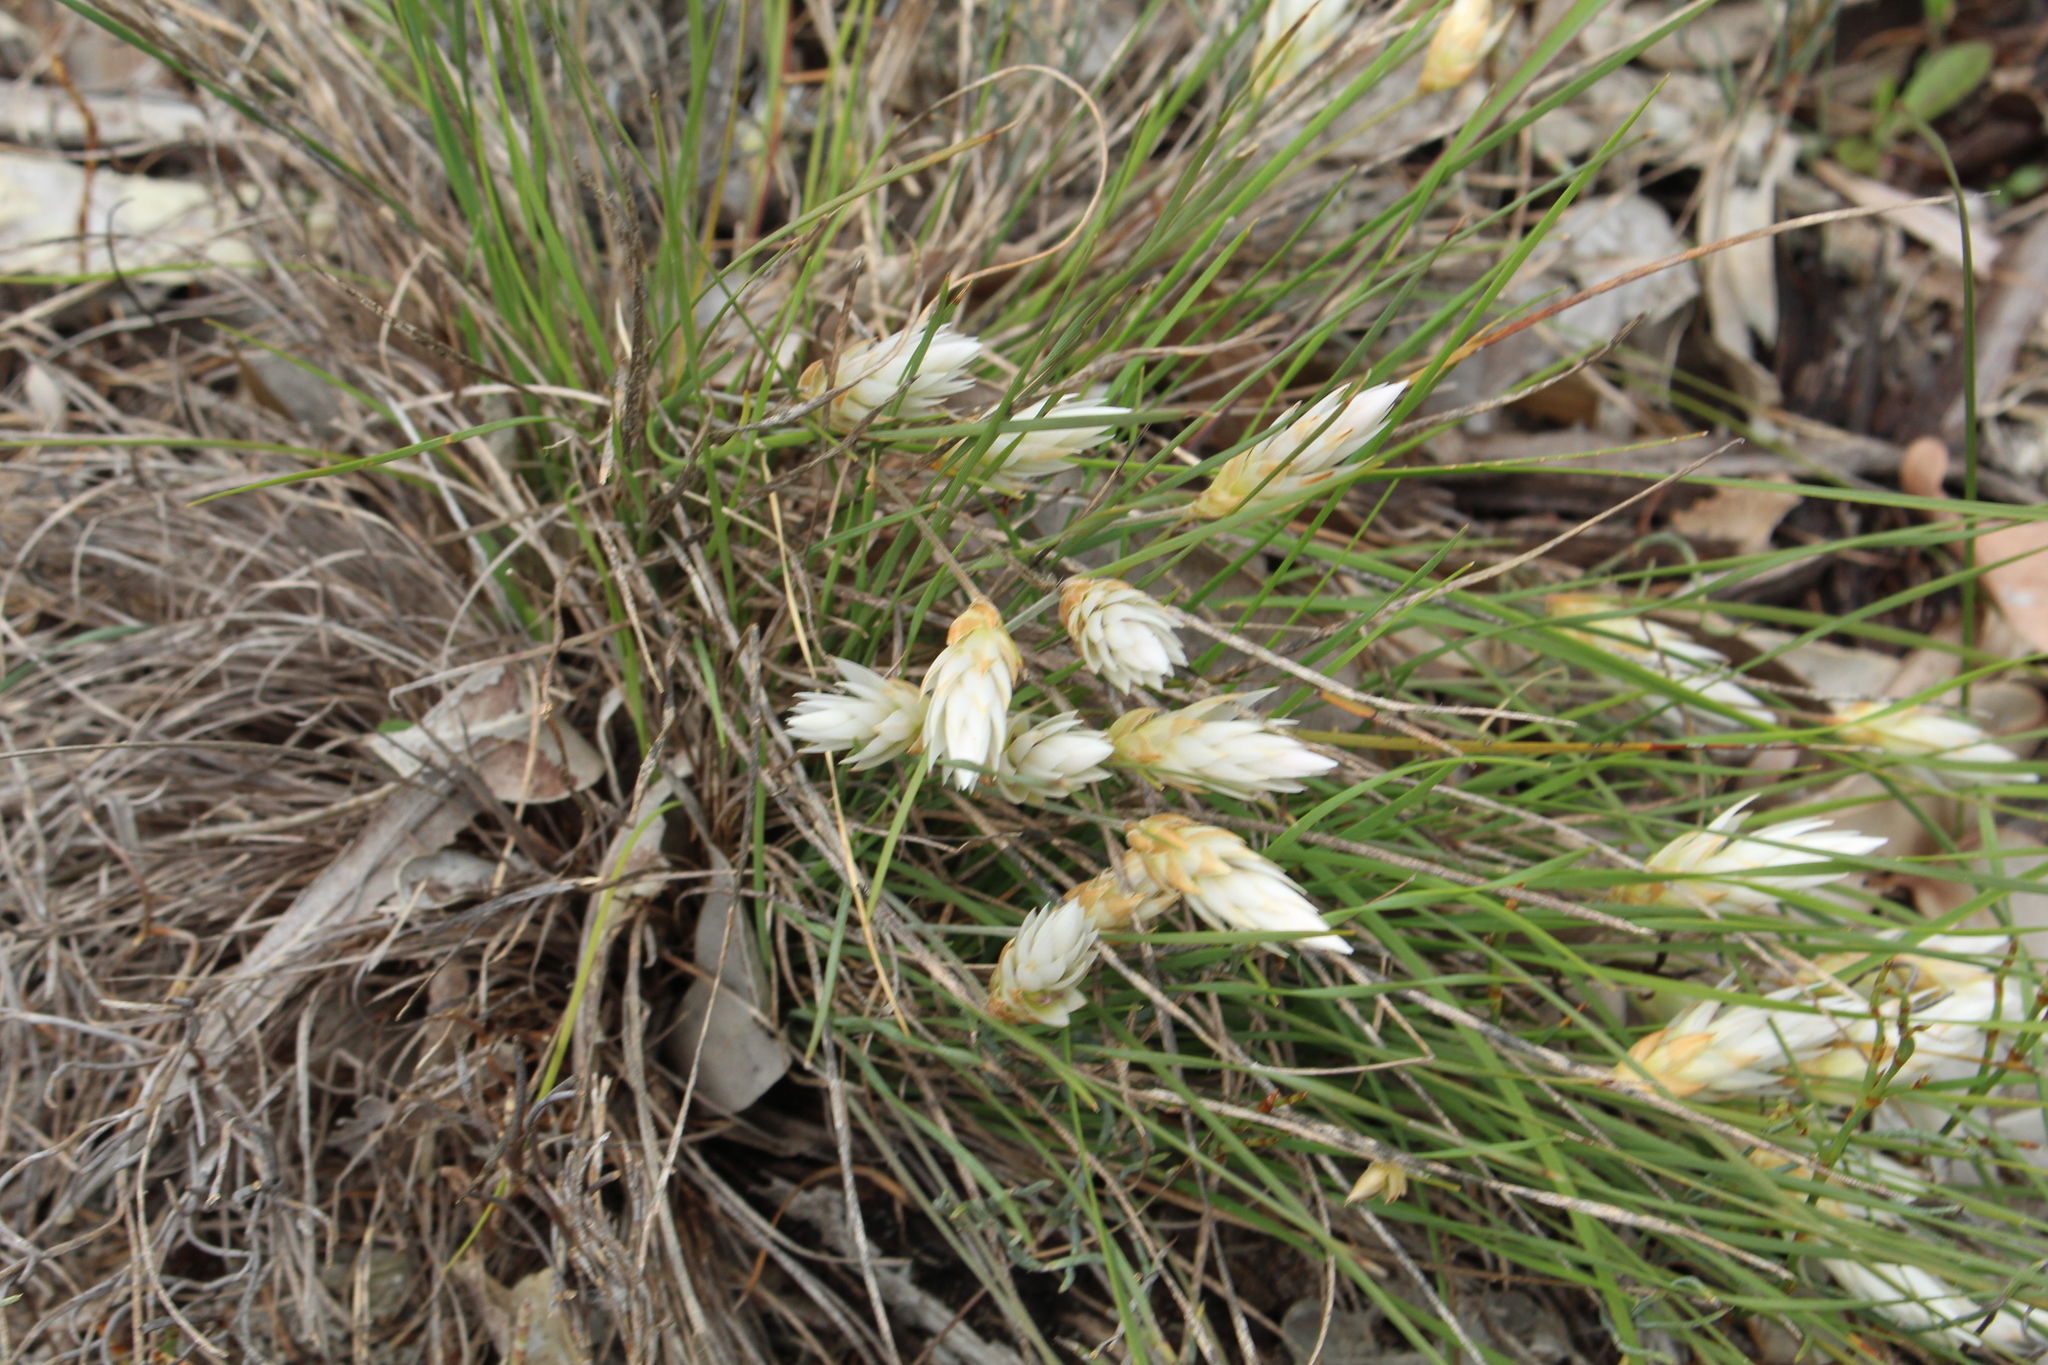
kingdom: Plantae
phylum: Tracheophyta
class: Liliopsida
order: Asparagales
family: Asphodelaceae
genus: Johnsonia
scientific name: Johnsonia lupulina
